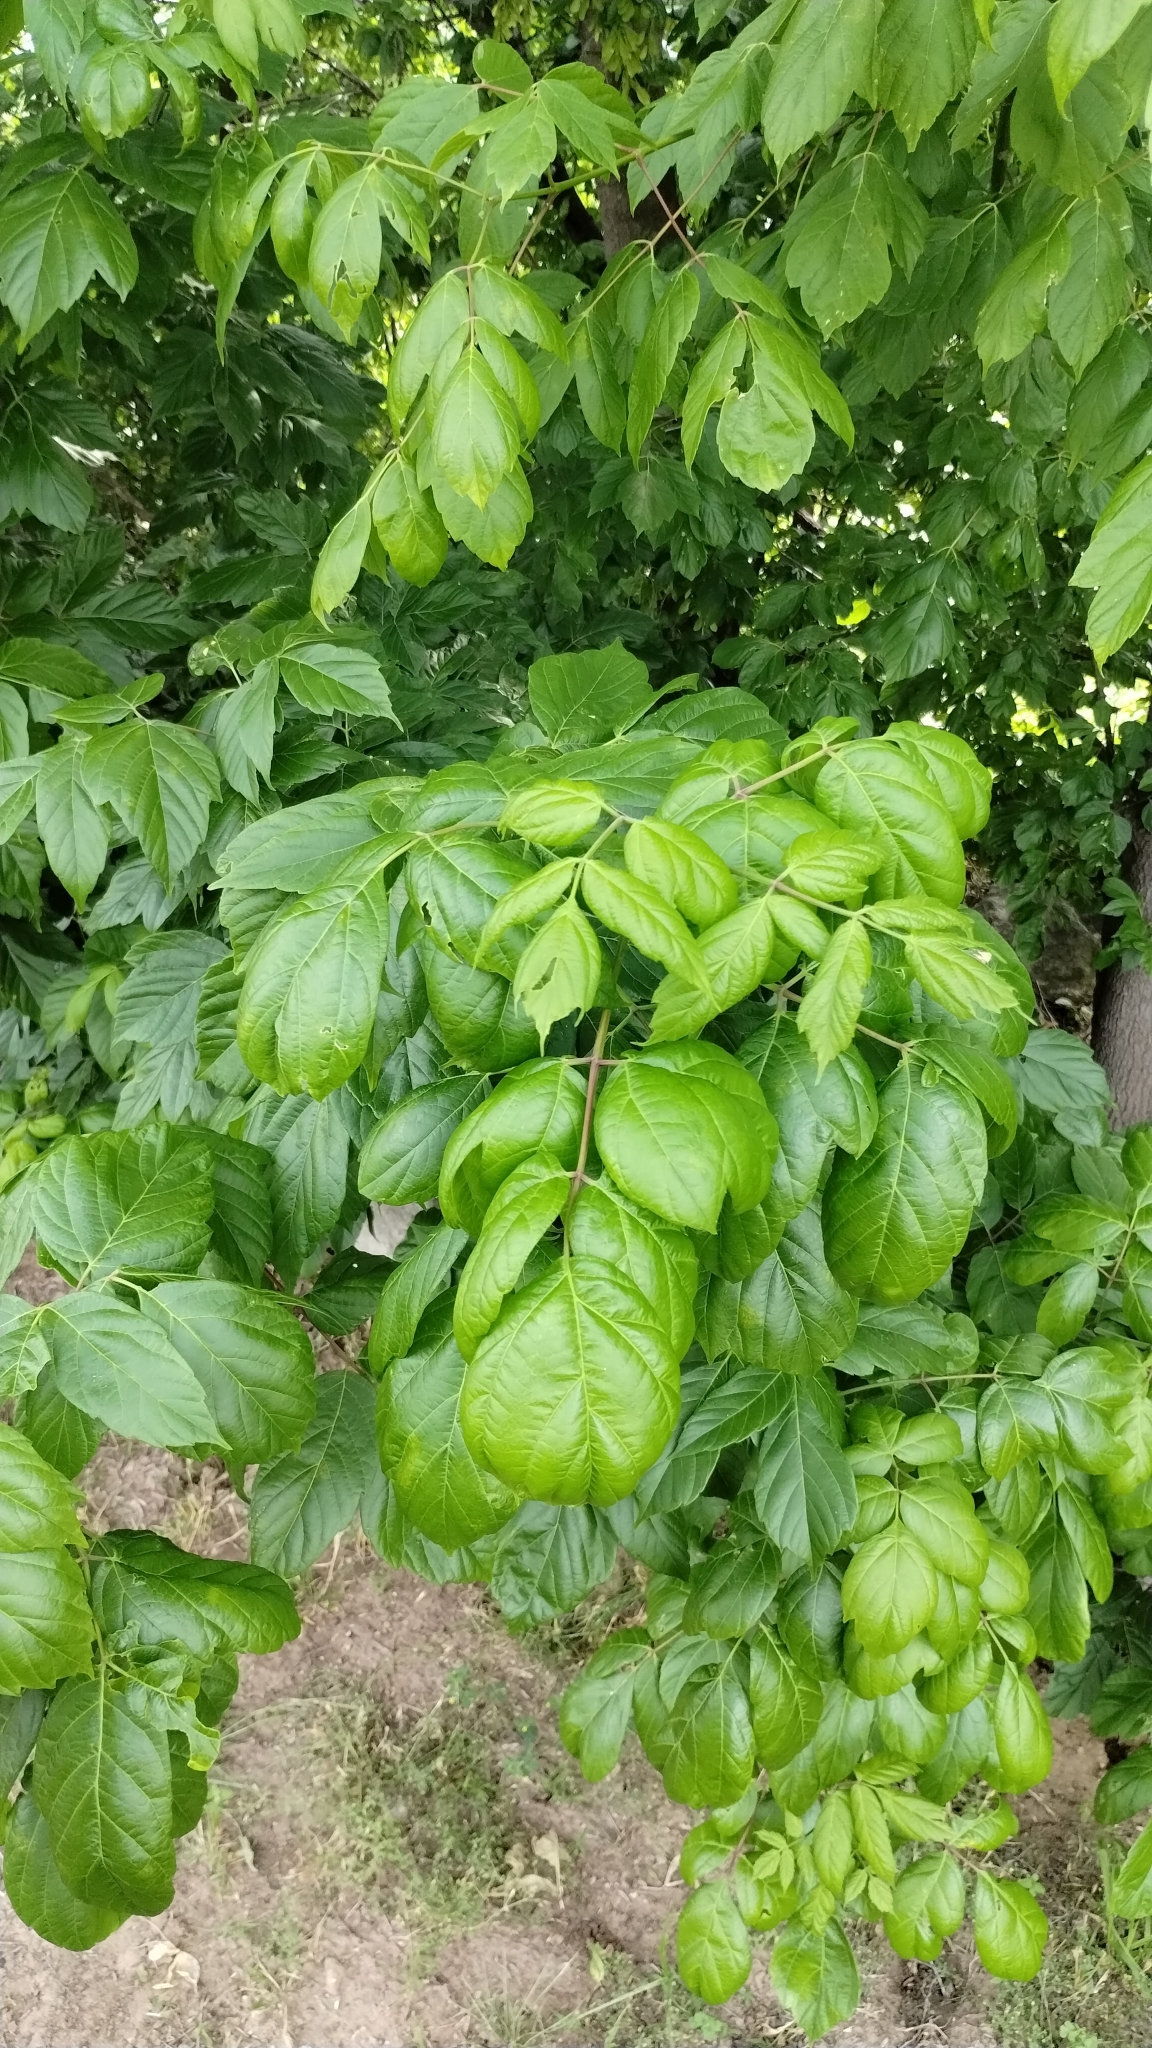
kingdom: Plantae
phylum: Tracheophyta
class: Magnoliopsida
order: Sapindales
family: Sapindaceae
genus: Acer
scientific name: Acer negundo
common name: Ashleaf maple
